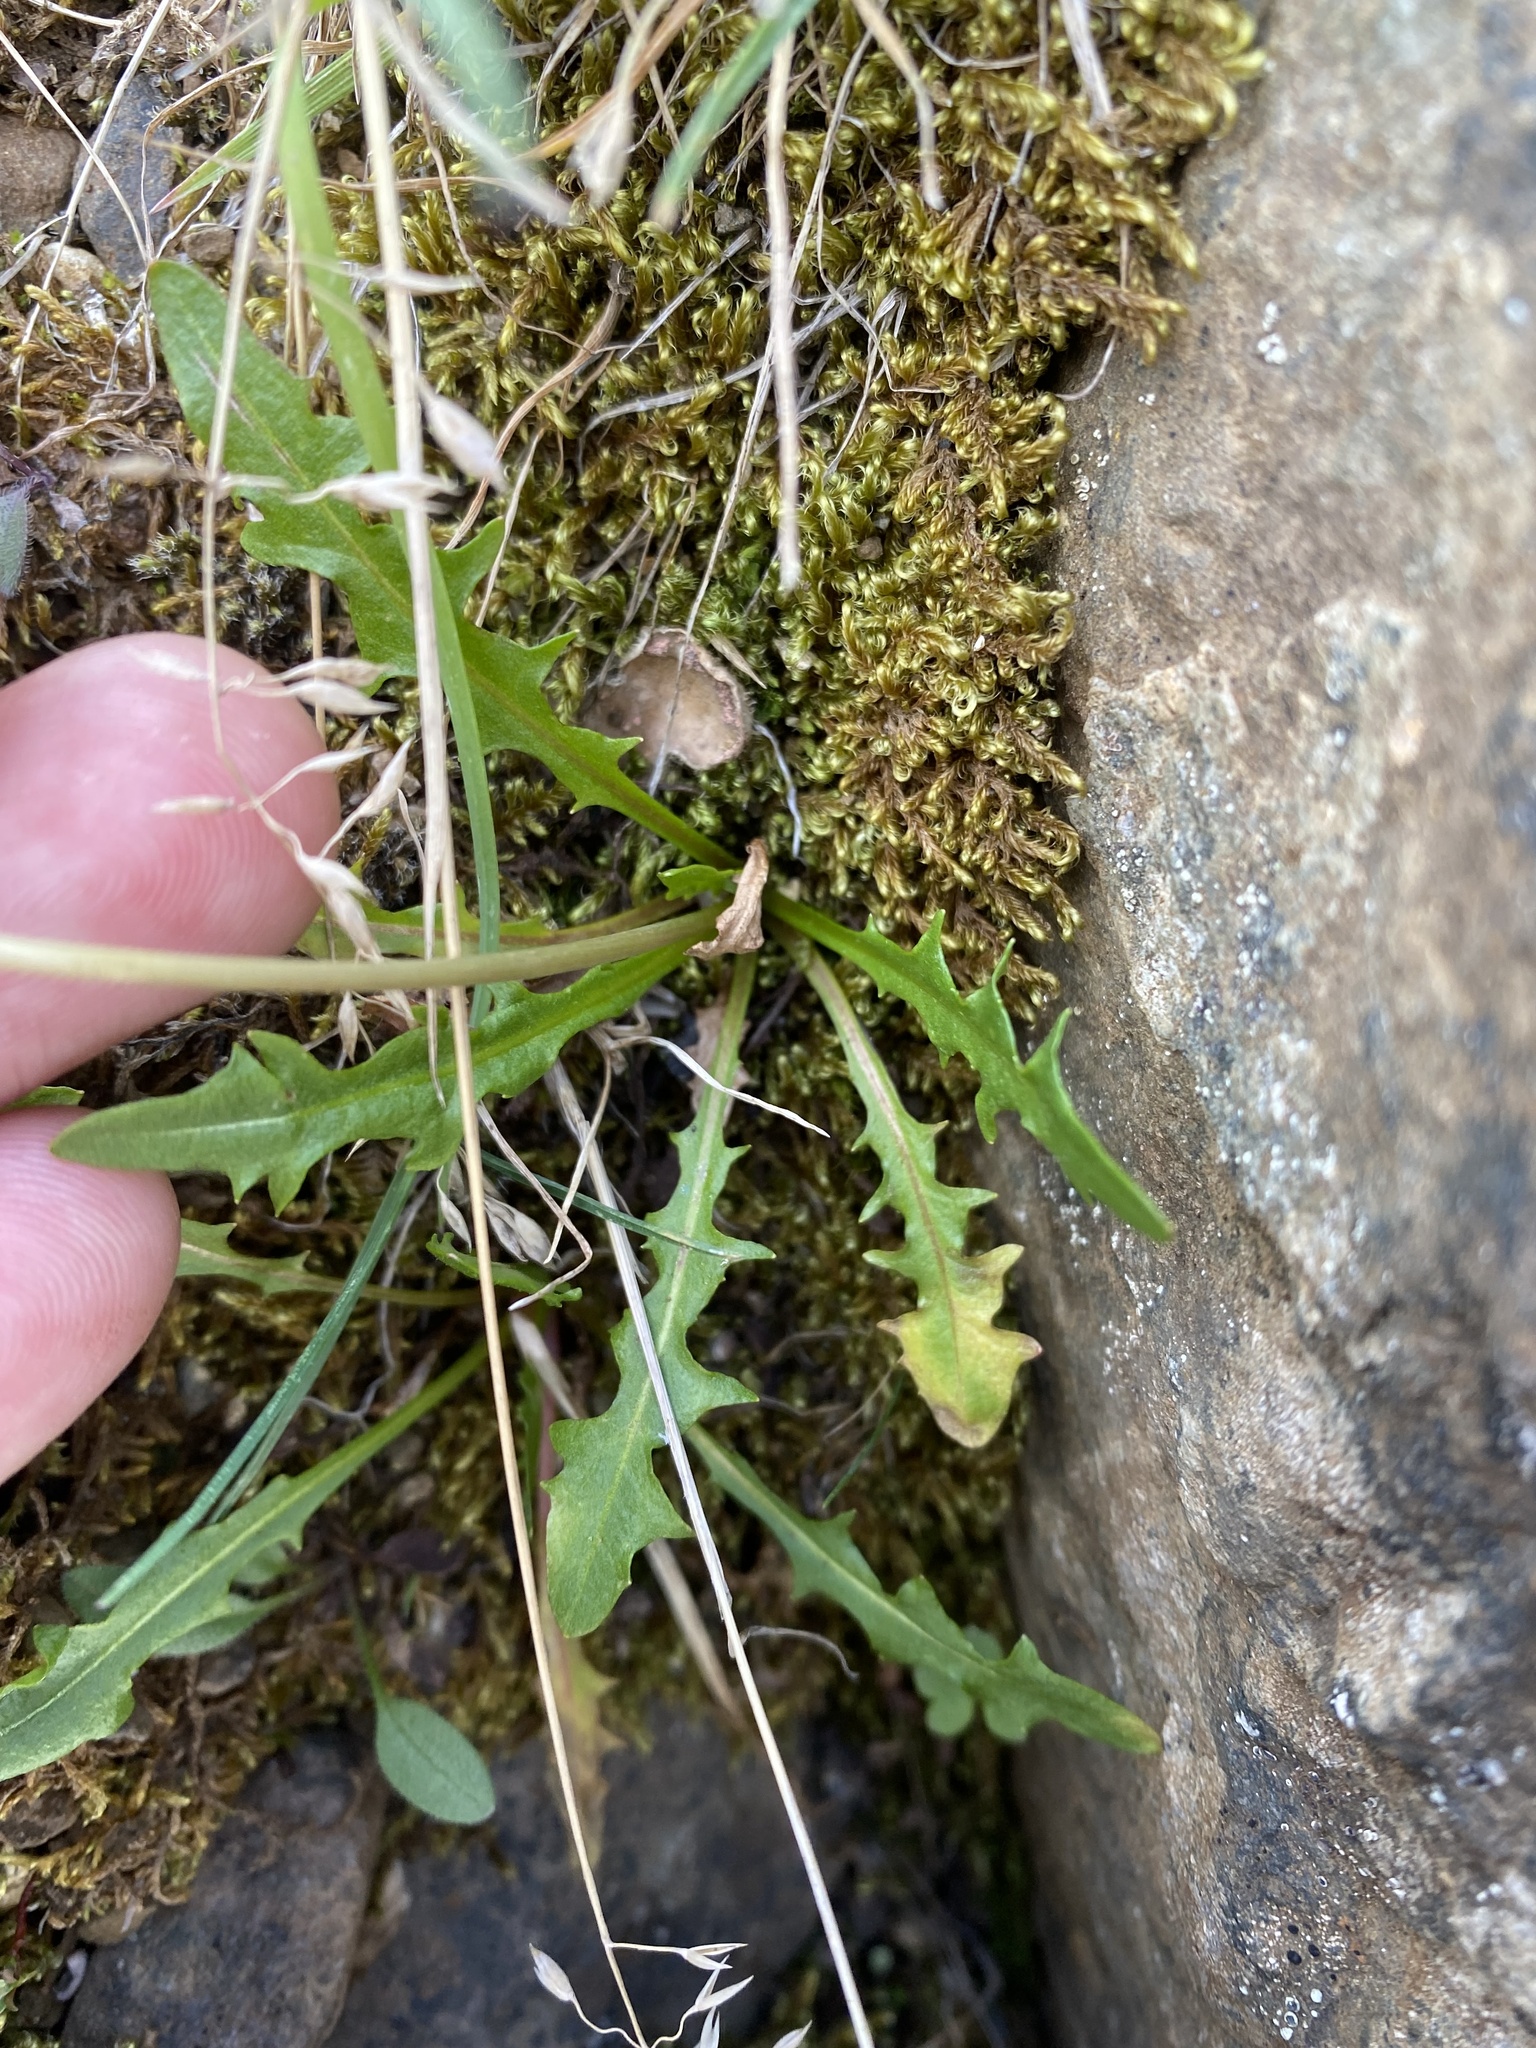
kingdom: Plantae
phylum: Tracheophyta
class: Magnoliopsida
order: Asterales
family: Asteraceae
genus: Taraxacum
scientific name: Taraxacum arcticum
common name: Arctic dandelion
